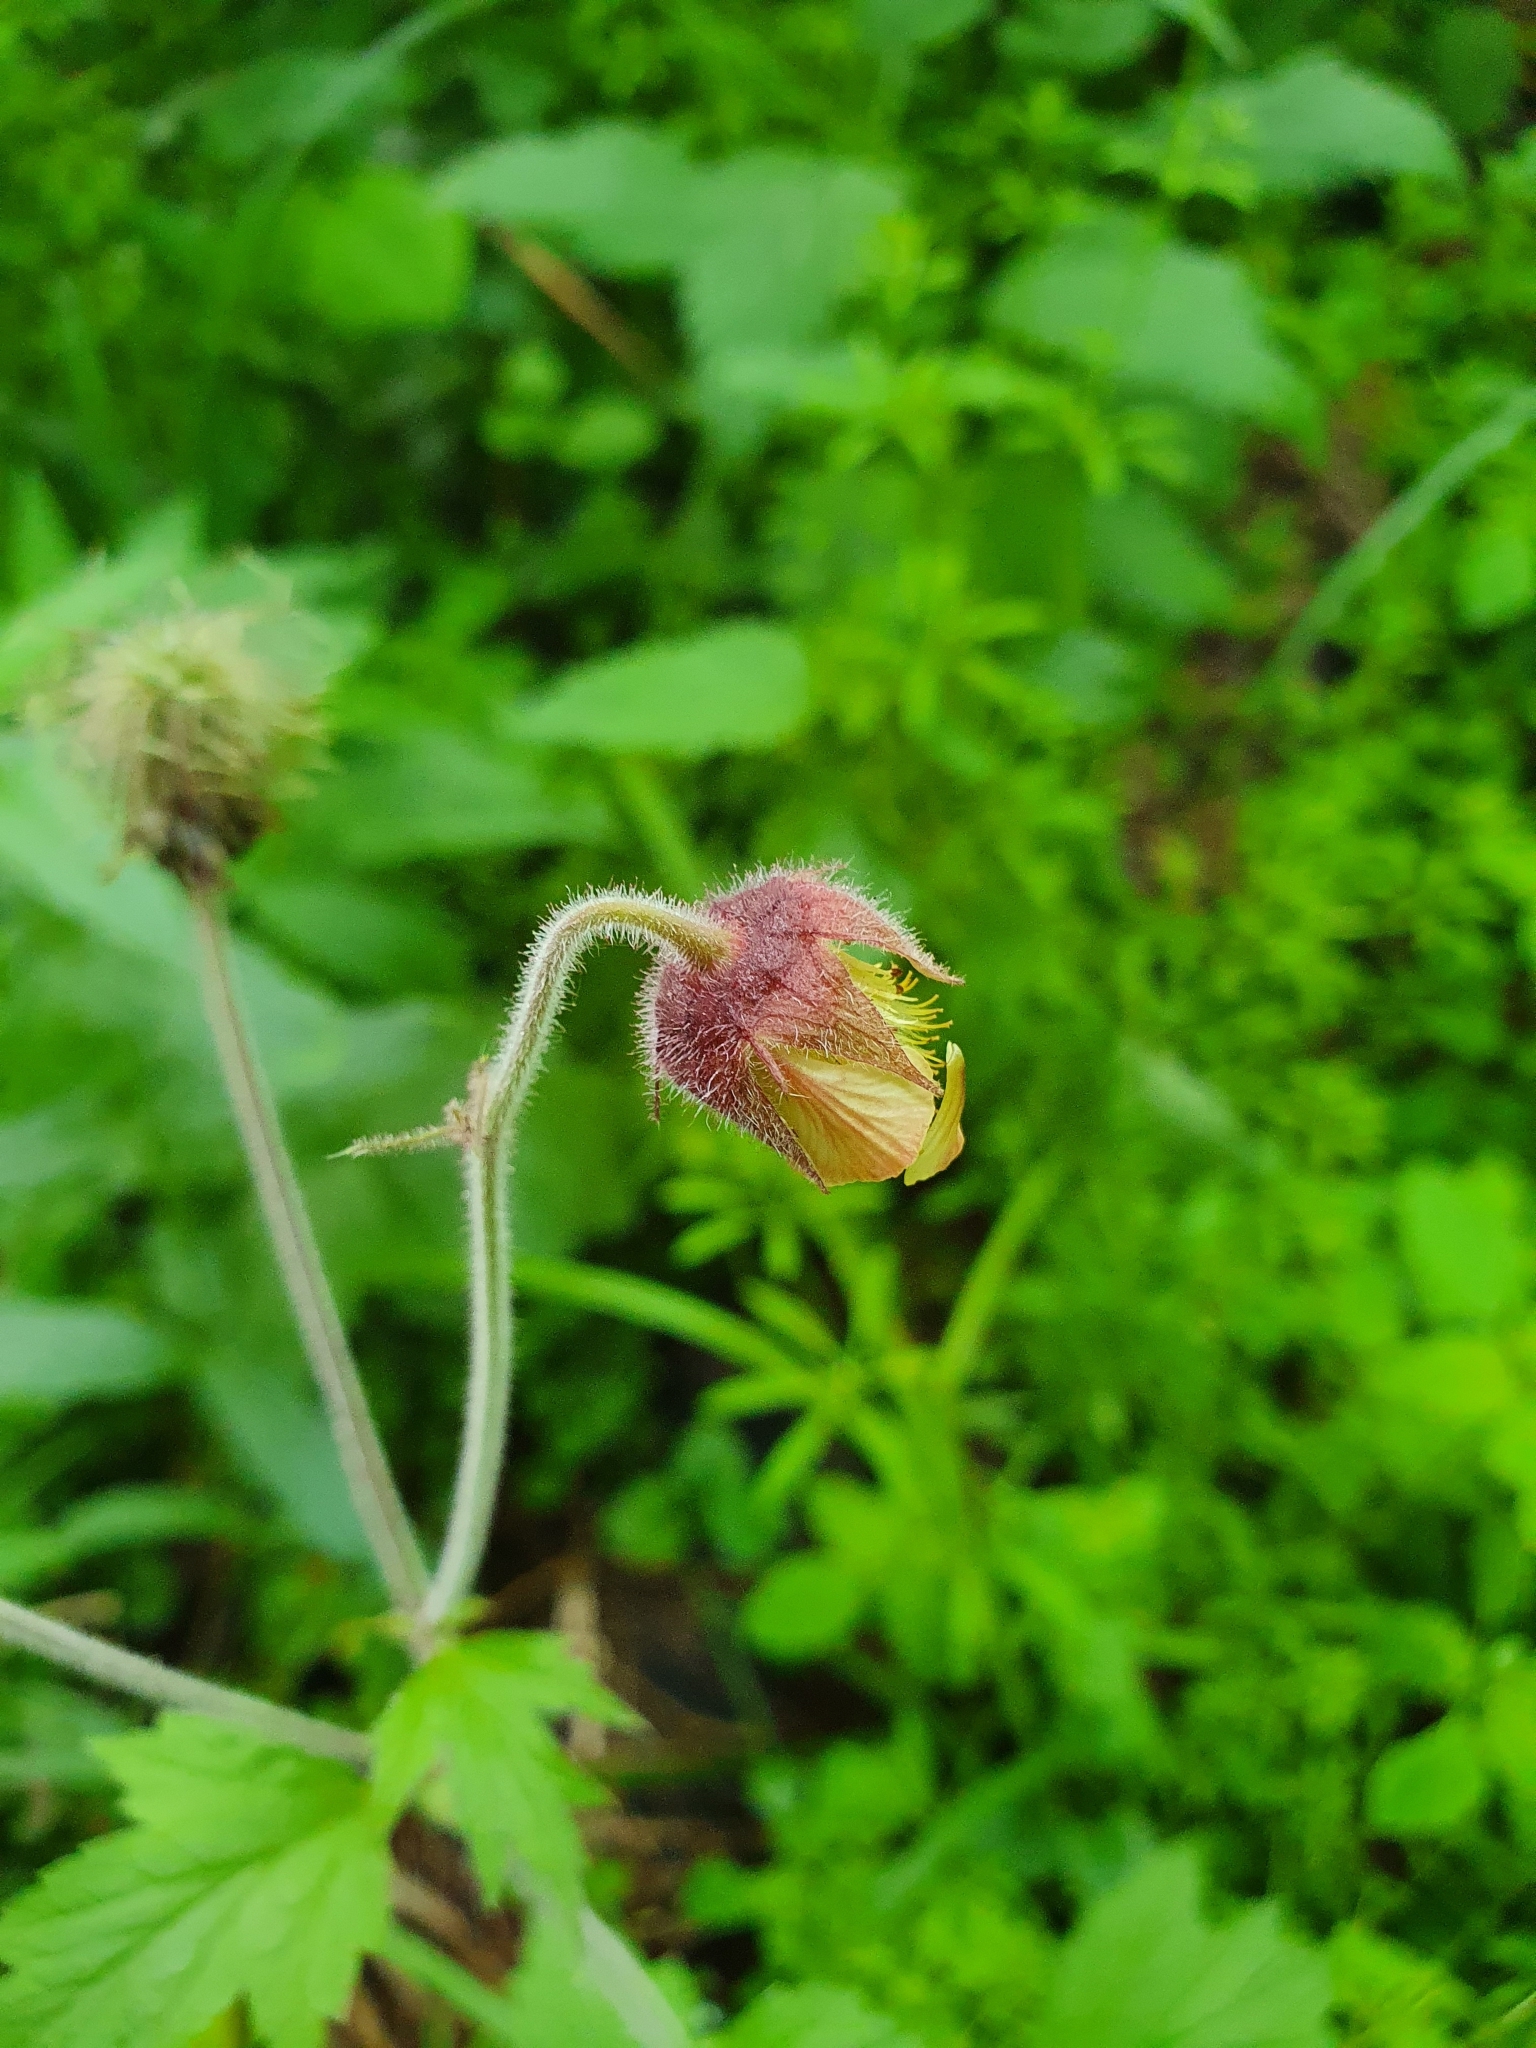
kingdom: Plantae
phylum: Tracheophyta
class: Magnoliopsida
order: Rosales
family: Rosaceae
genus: Geum
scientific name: Geum rivale
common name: Water avens
